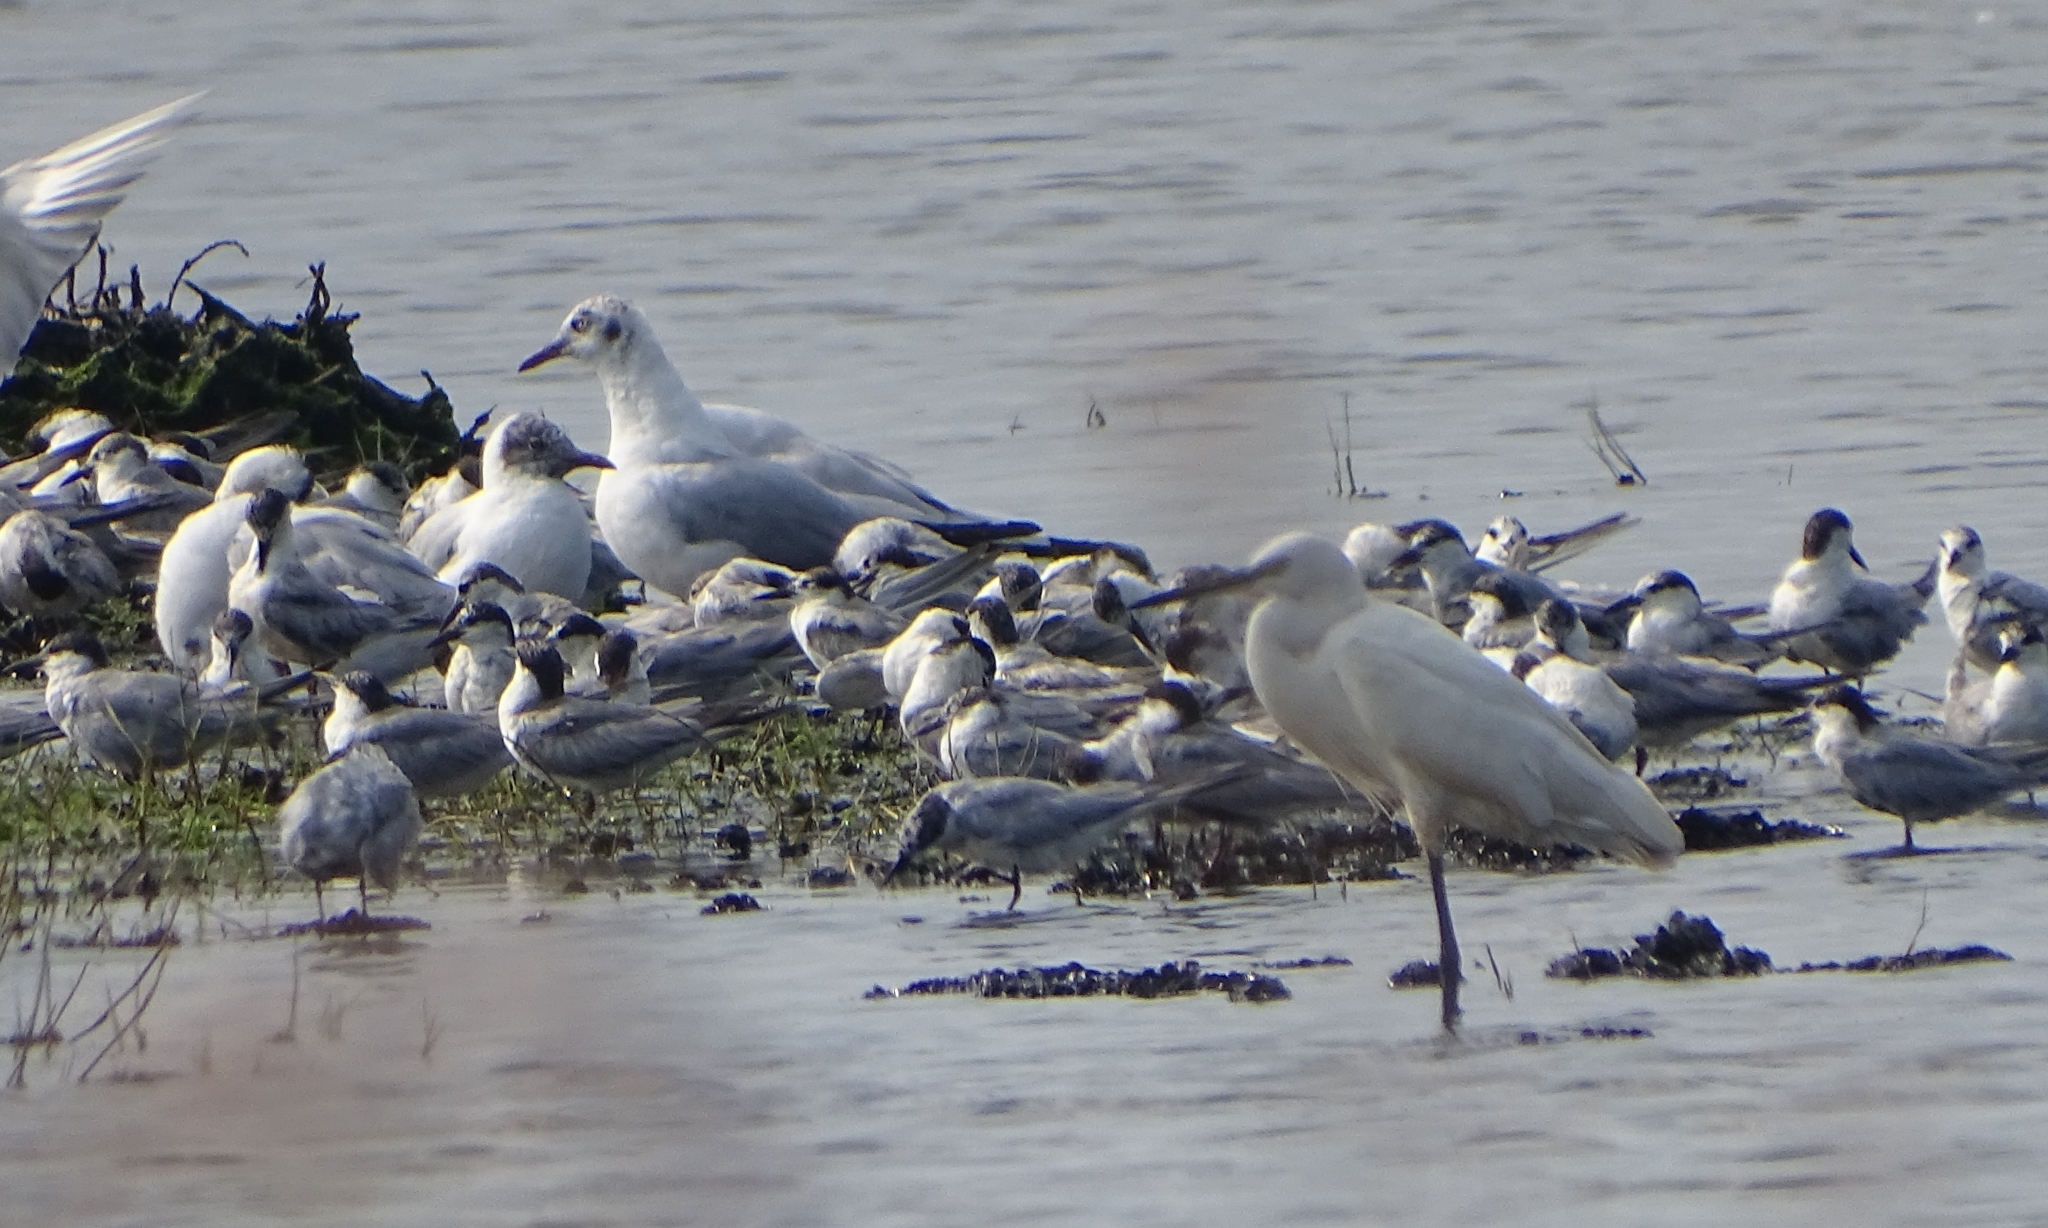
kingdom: Animalia
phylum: Chordata
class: Aves
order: Pelecaniformes
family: Ardeidae
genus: Egretta
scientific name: Egretta garzetta
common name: Little egret
